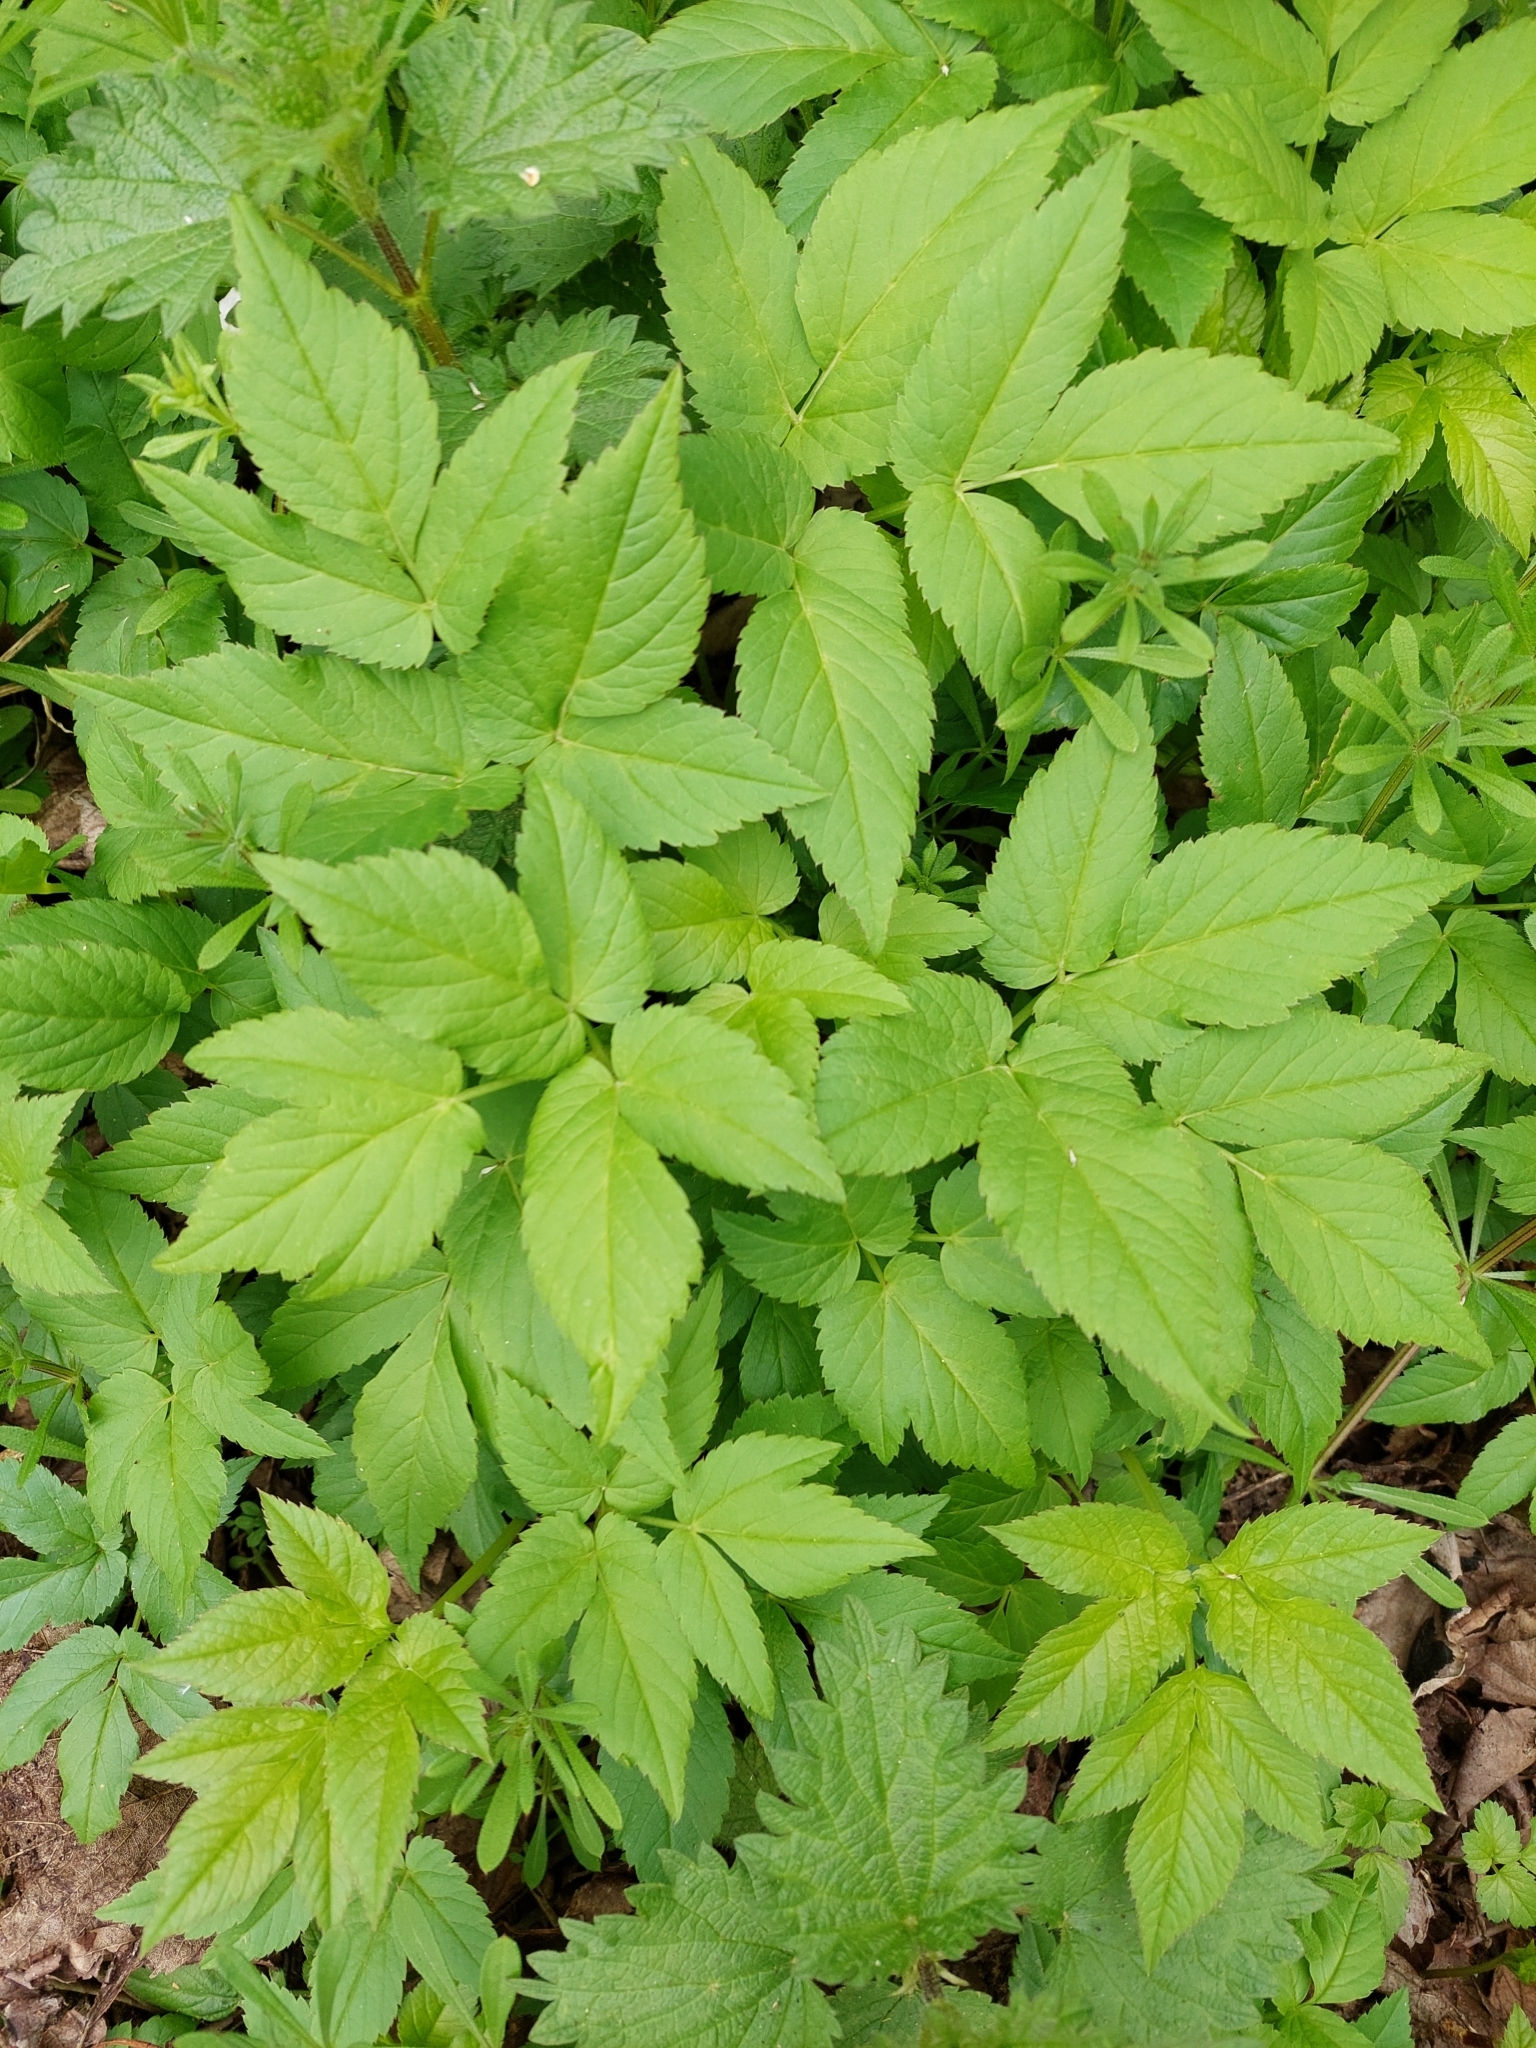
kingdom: Plantae
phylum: Tracheophyta
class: Magnoliopsida
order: Apiales
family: Apiaceae
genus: Aegopodium
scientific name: Aegopodium podagraria
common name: Ground-elder
